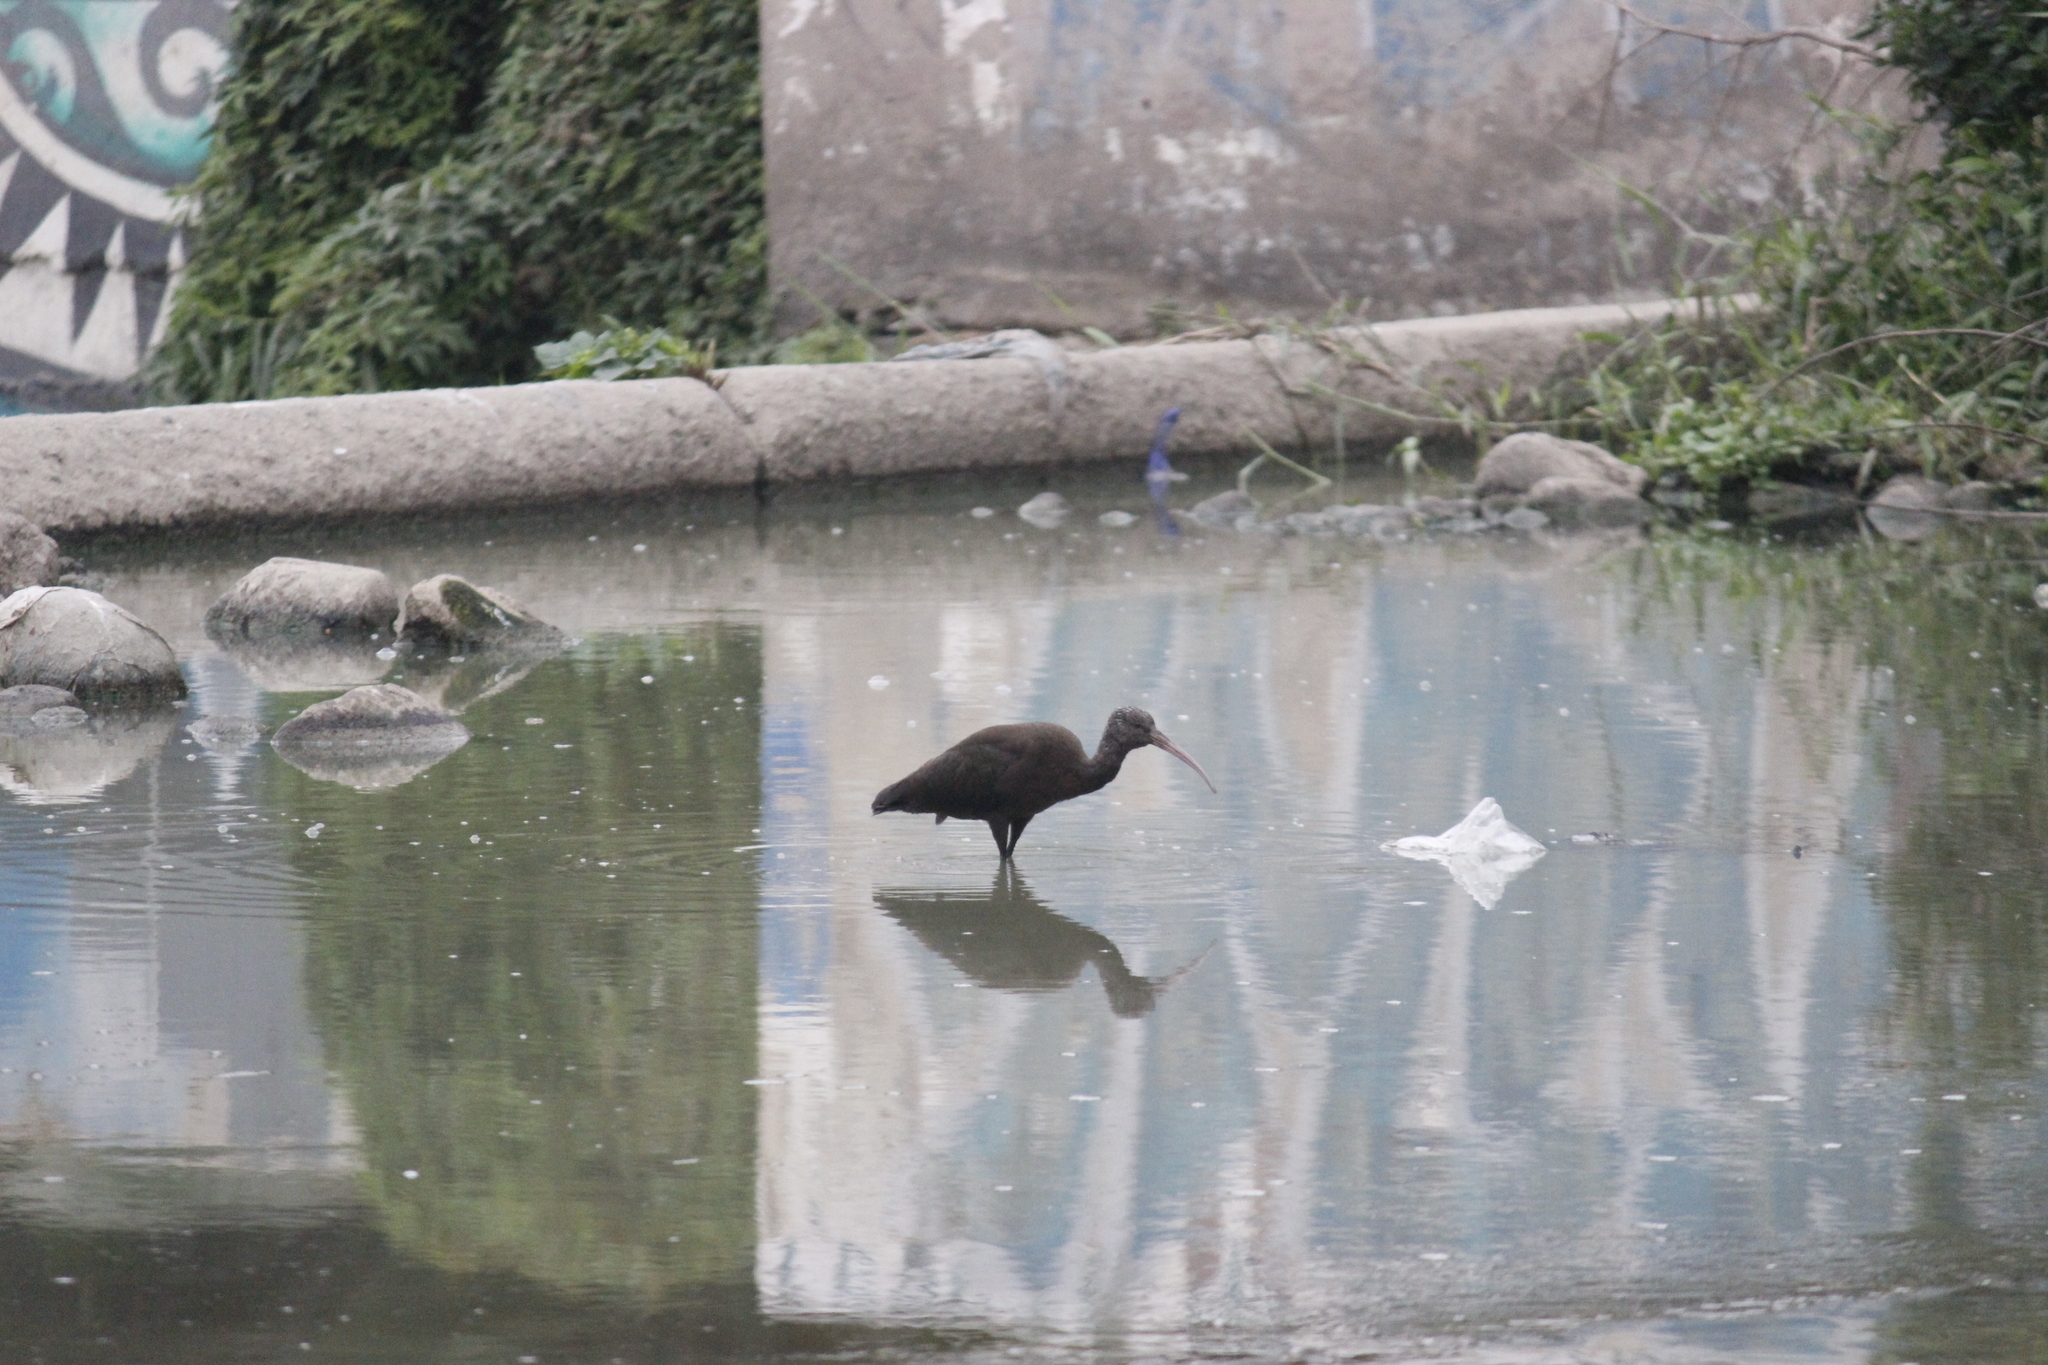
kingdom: Animalia
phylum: Chordata
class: Aves
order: Pelecaniformes
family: Threskiornithidae
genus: Plegadis
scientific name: Plegadis ridgwayi
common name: Puna ibis
